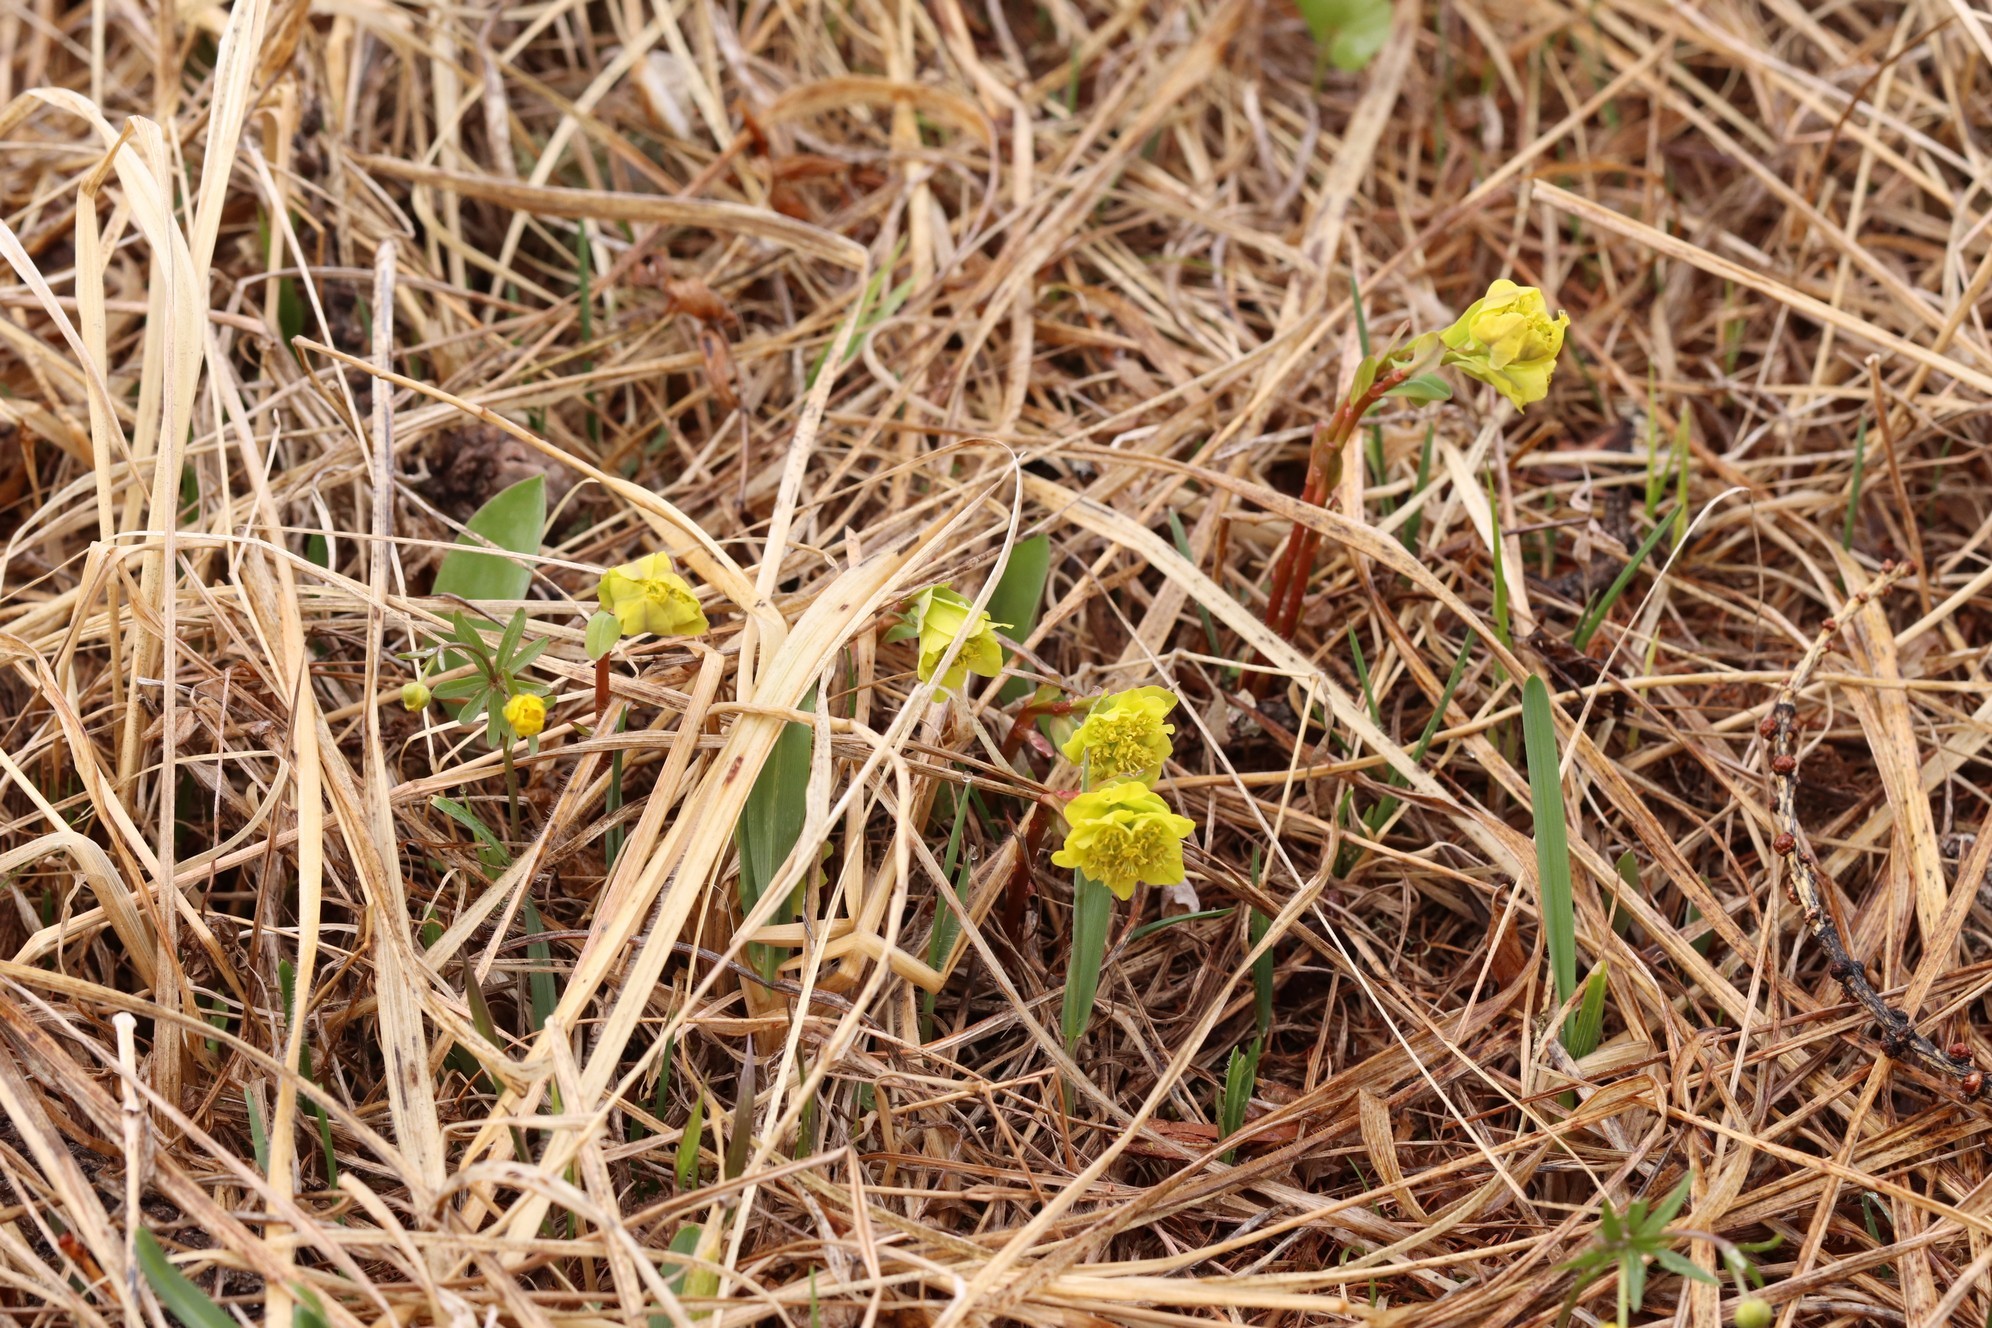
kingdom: Plantae
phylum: Tracheophyta
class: Magnoliopsida
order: Malpighiales
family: Euphorbiaceae
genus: Euphorbia
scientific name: Euphorbia altaica
